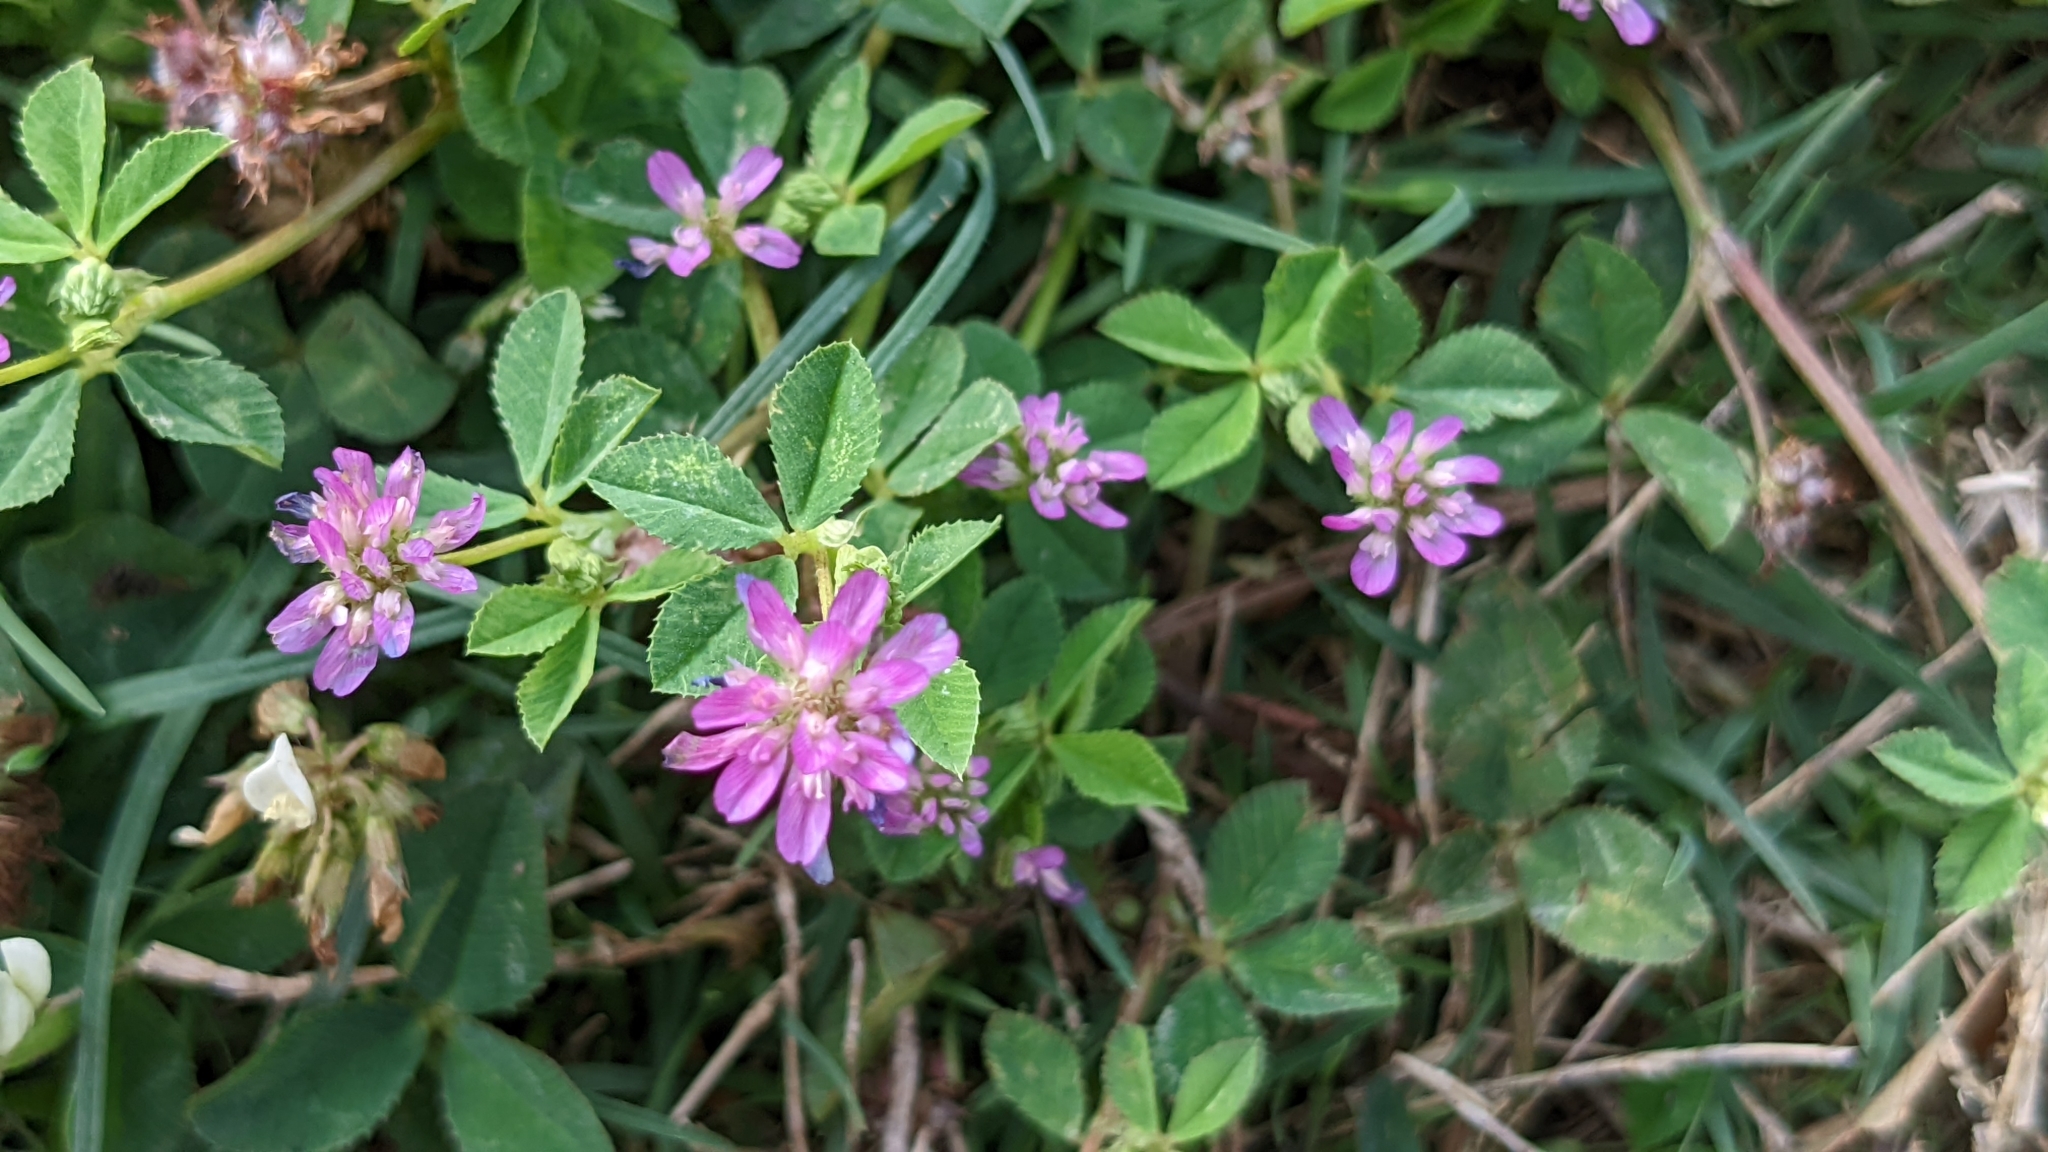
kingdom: Plantae
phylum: Tracheophyta
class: Magnoliopsida
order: Fabales
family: Fabaceae
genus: Trifolium
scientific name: Trifolium resupinatum
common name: Reversed clover
